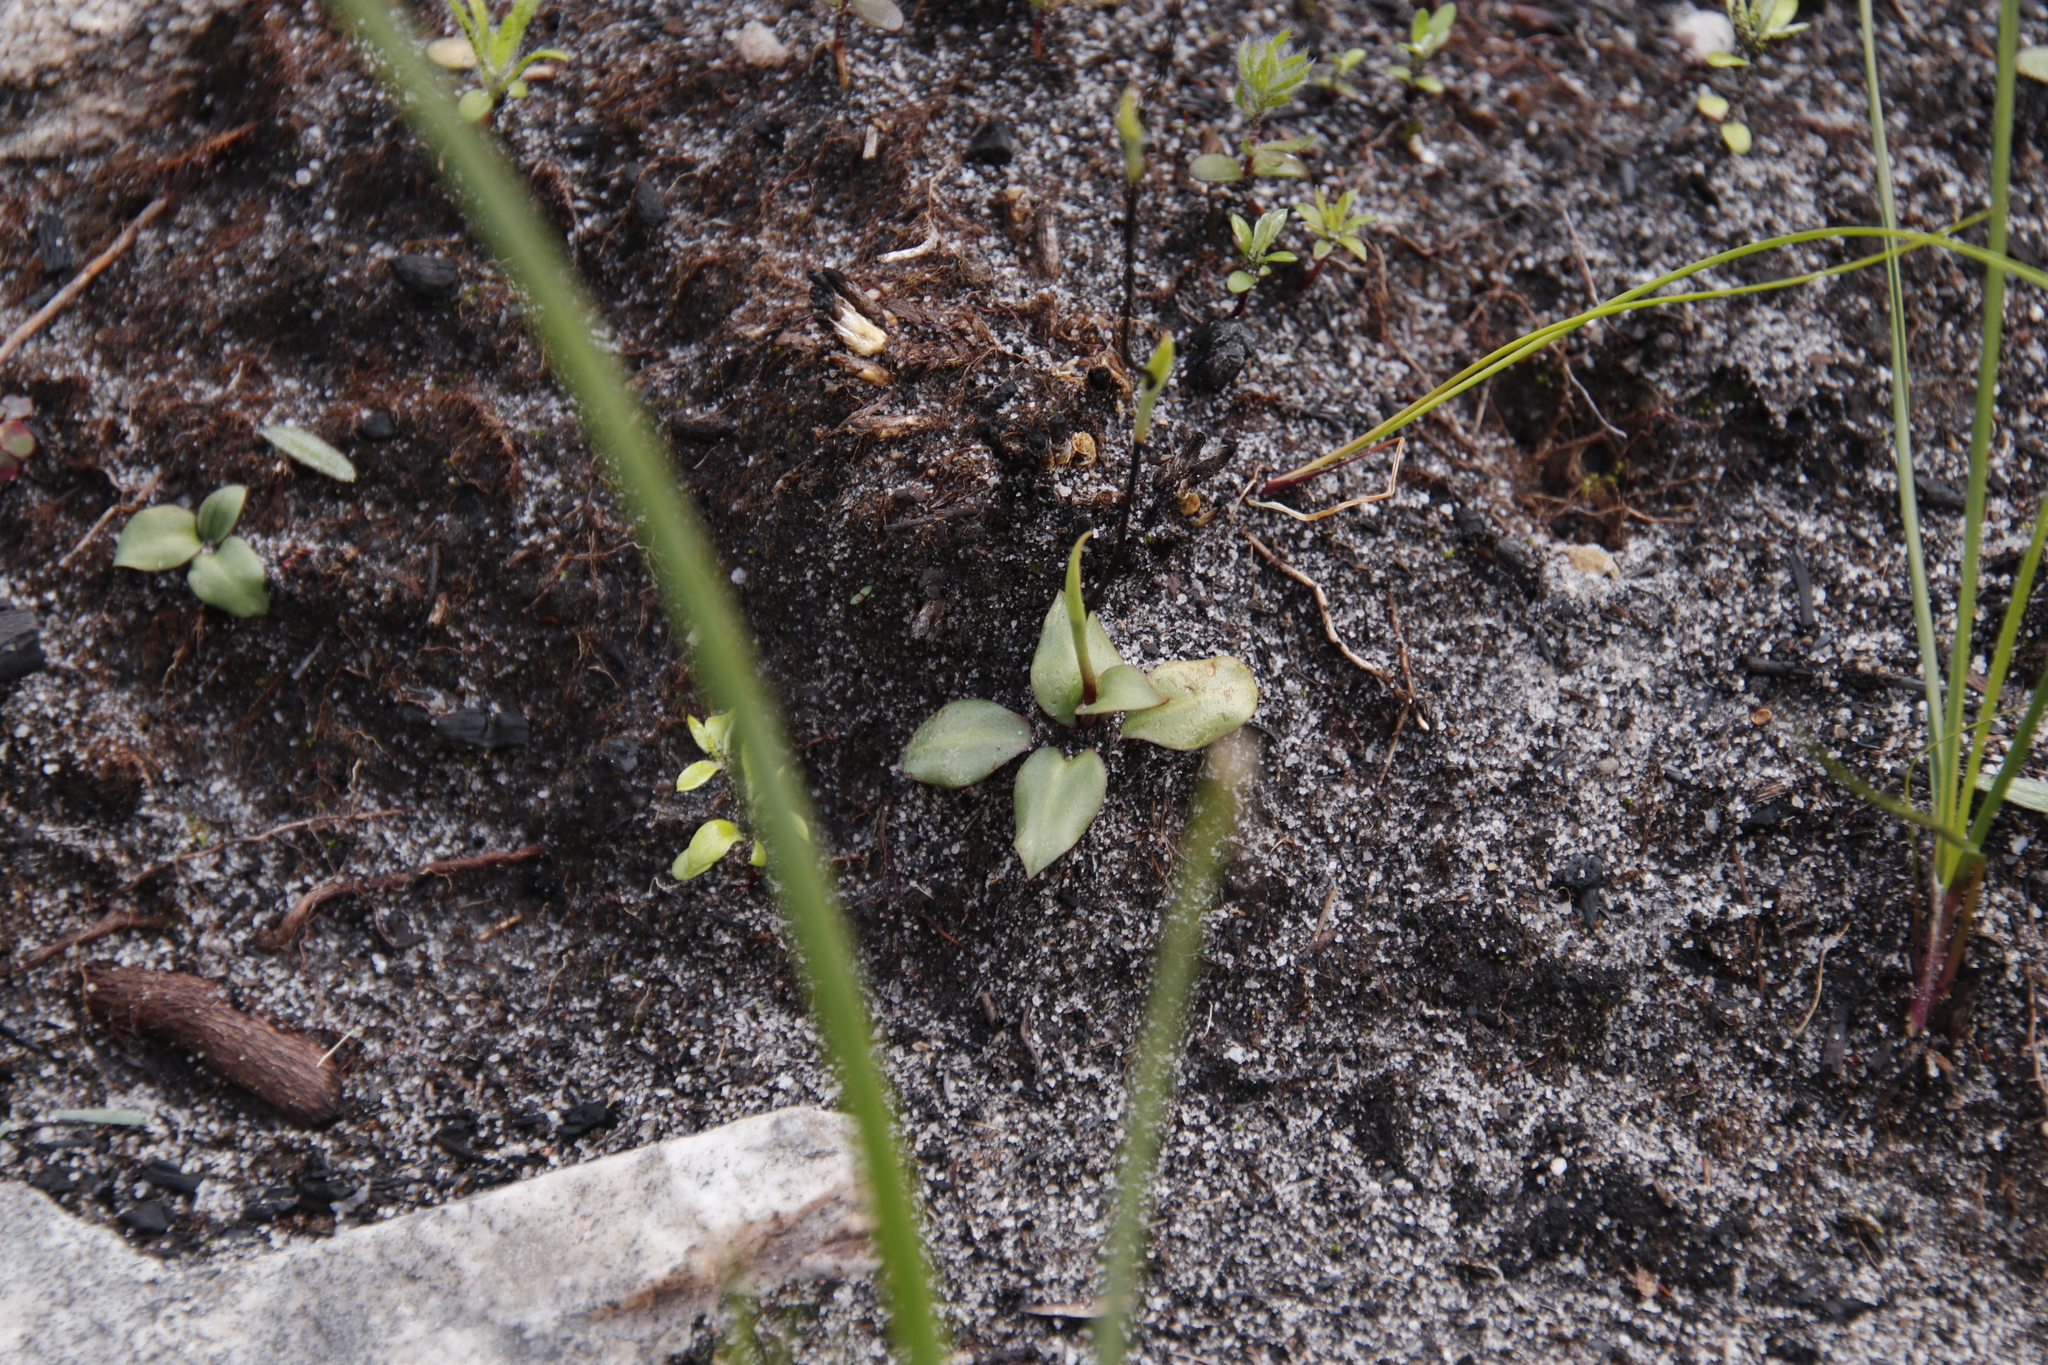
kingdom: Plantae
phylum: Tracheophyta
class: Liliopsida
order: Asparagales
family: Orchidaceae
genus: Disa
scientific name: Disa obliqua
